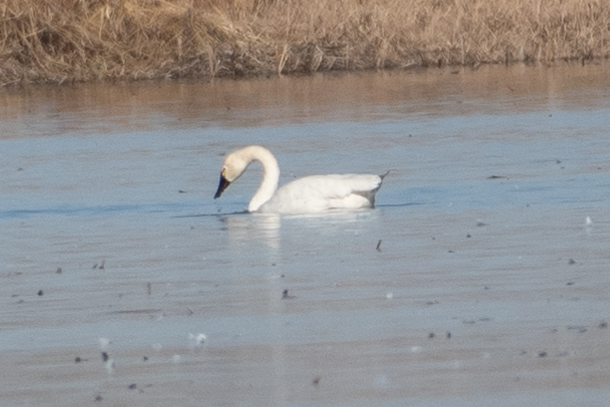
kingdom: Animalia
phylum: Chordata
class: Aves
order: Anseriformes
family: Anatidae
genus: Cygnus
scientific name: Cygnus columbianus
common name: Tundra swan
